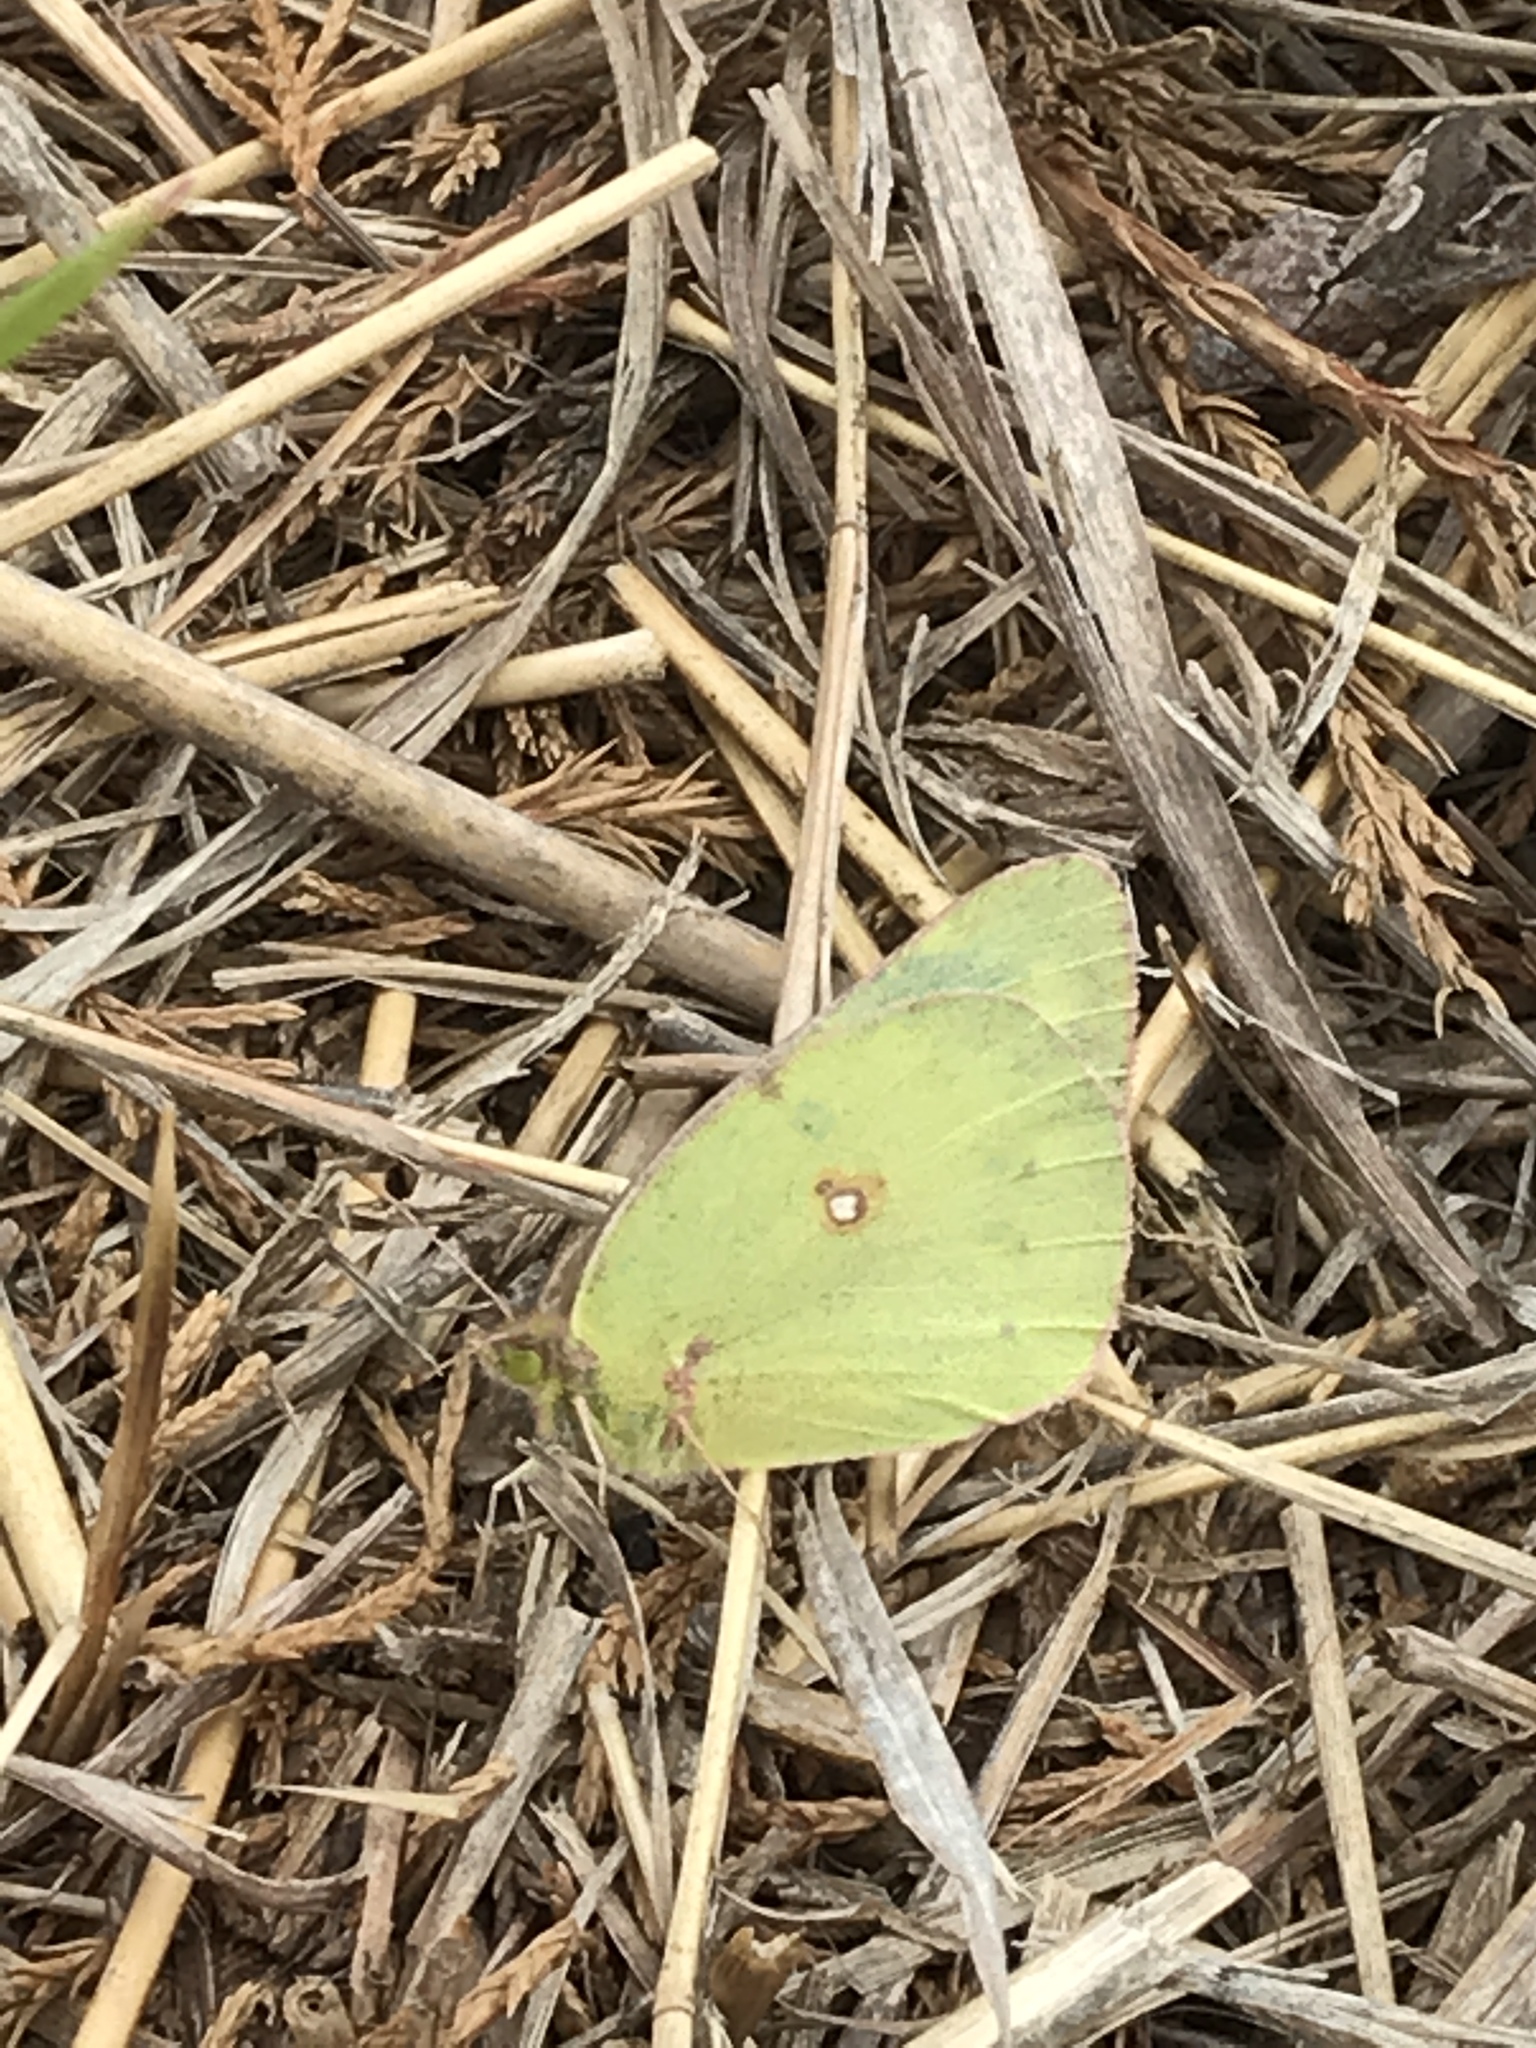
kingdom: Animalia
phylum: Arthropoda
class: Insecta
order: Lepidoptera
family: Pieridae
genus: Colias
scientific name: Colias eurytheme
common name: Alfalfa butterfly
